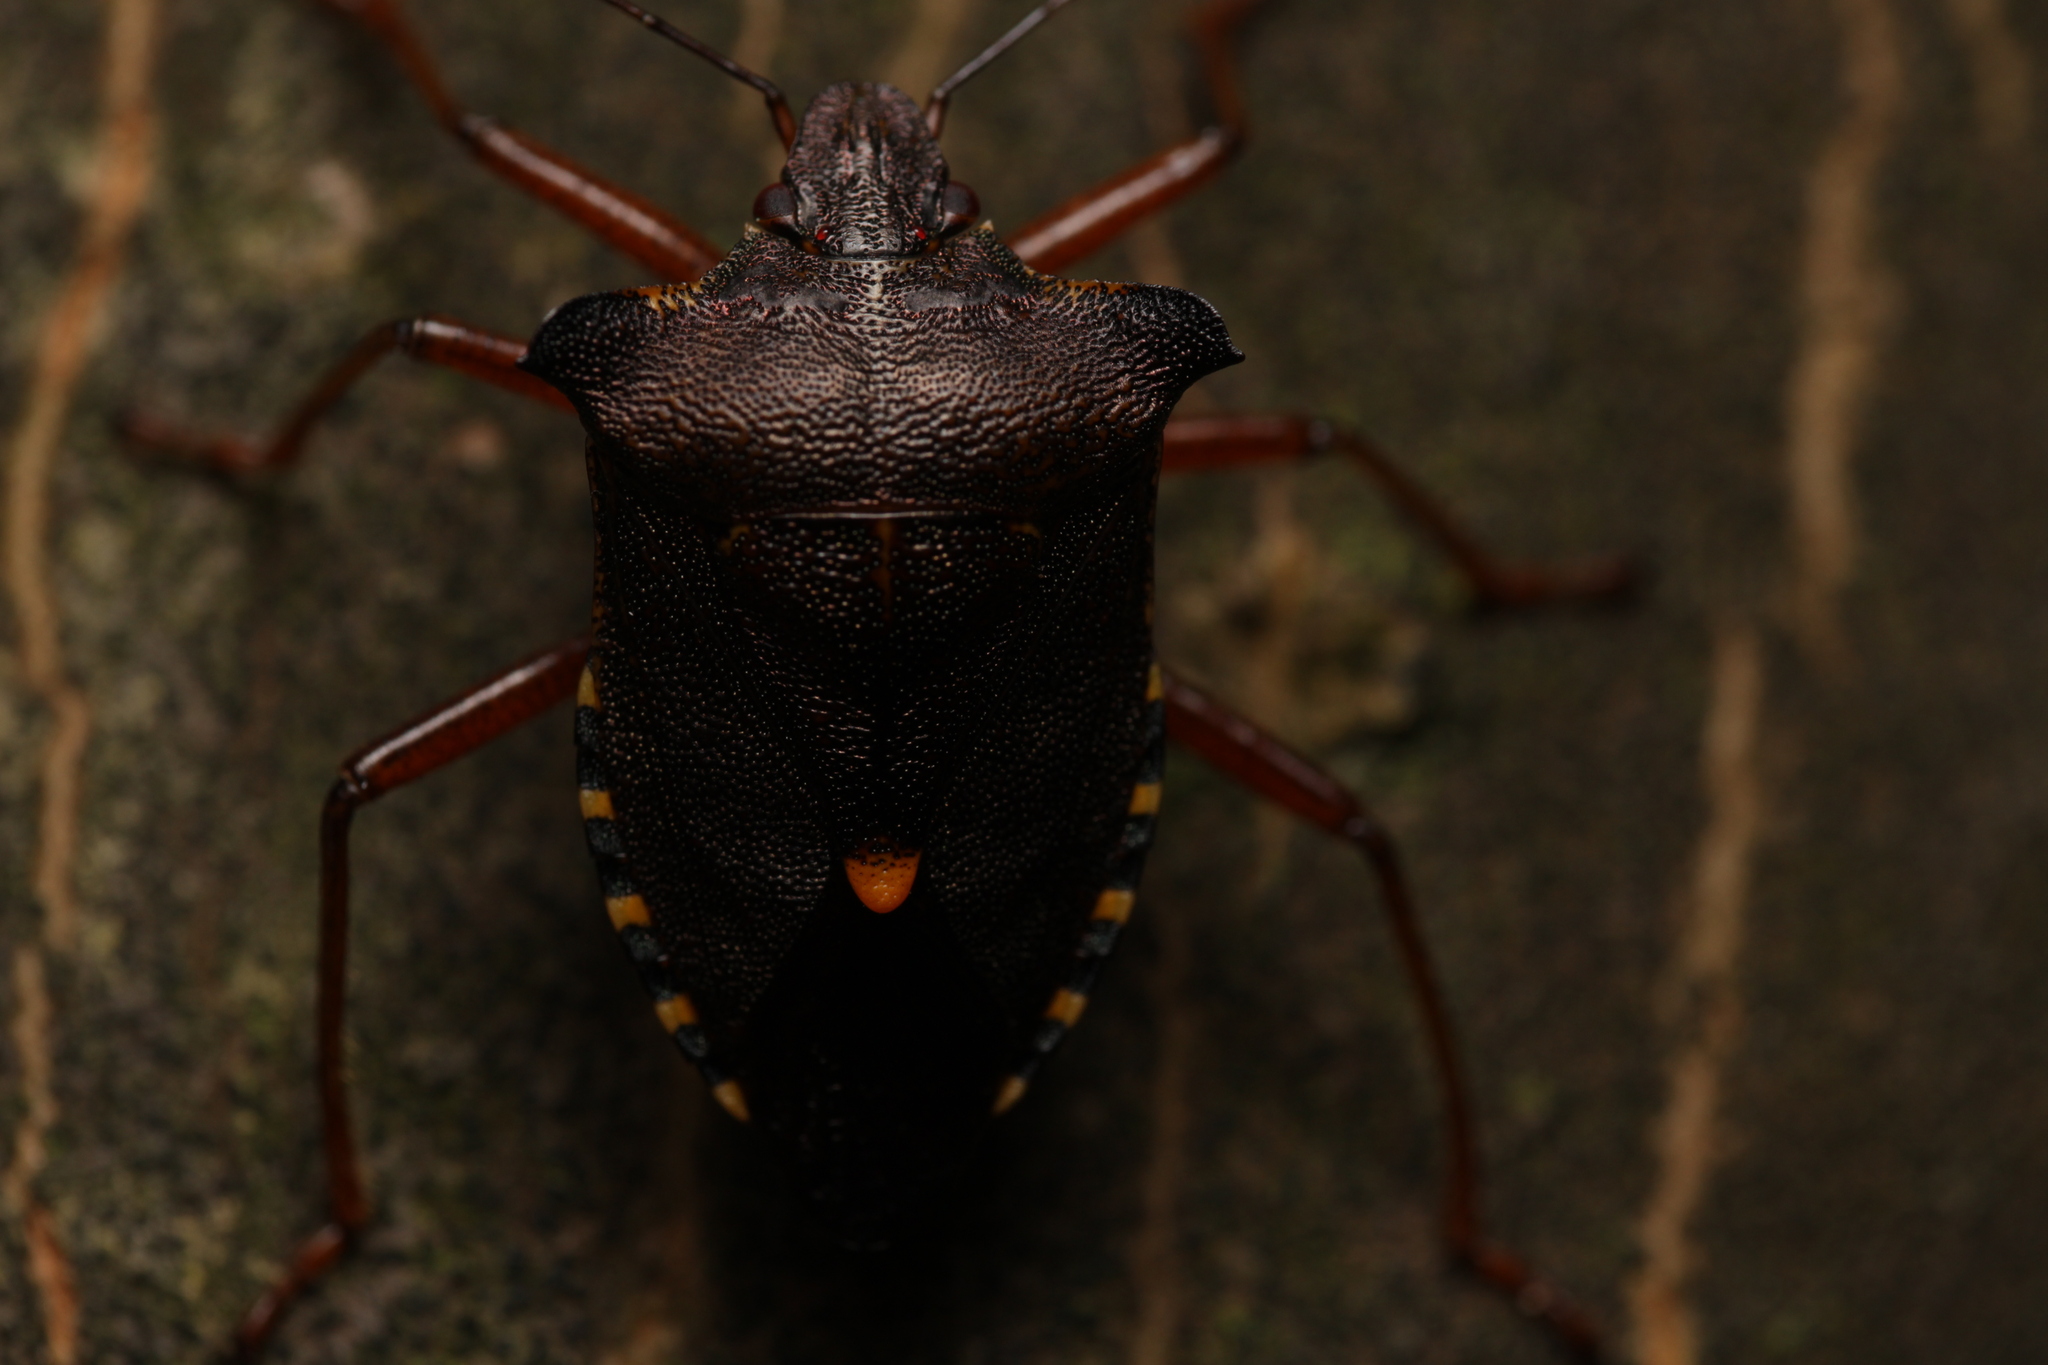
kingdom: Animalia
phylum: Arthropoda
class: Insecta
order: Hemiptera
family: Pentatomidae
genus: Pentatoma
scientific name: Pentatoma rufipes
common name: Forest bug
